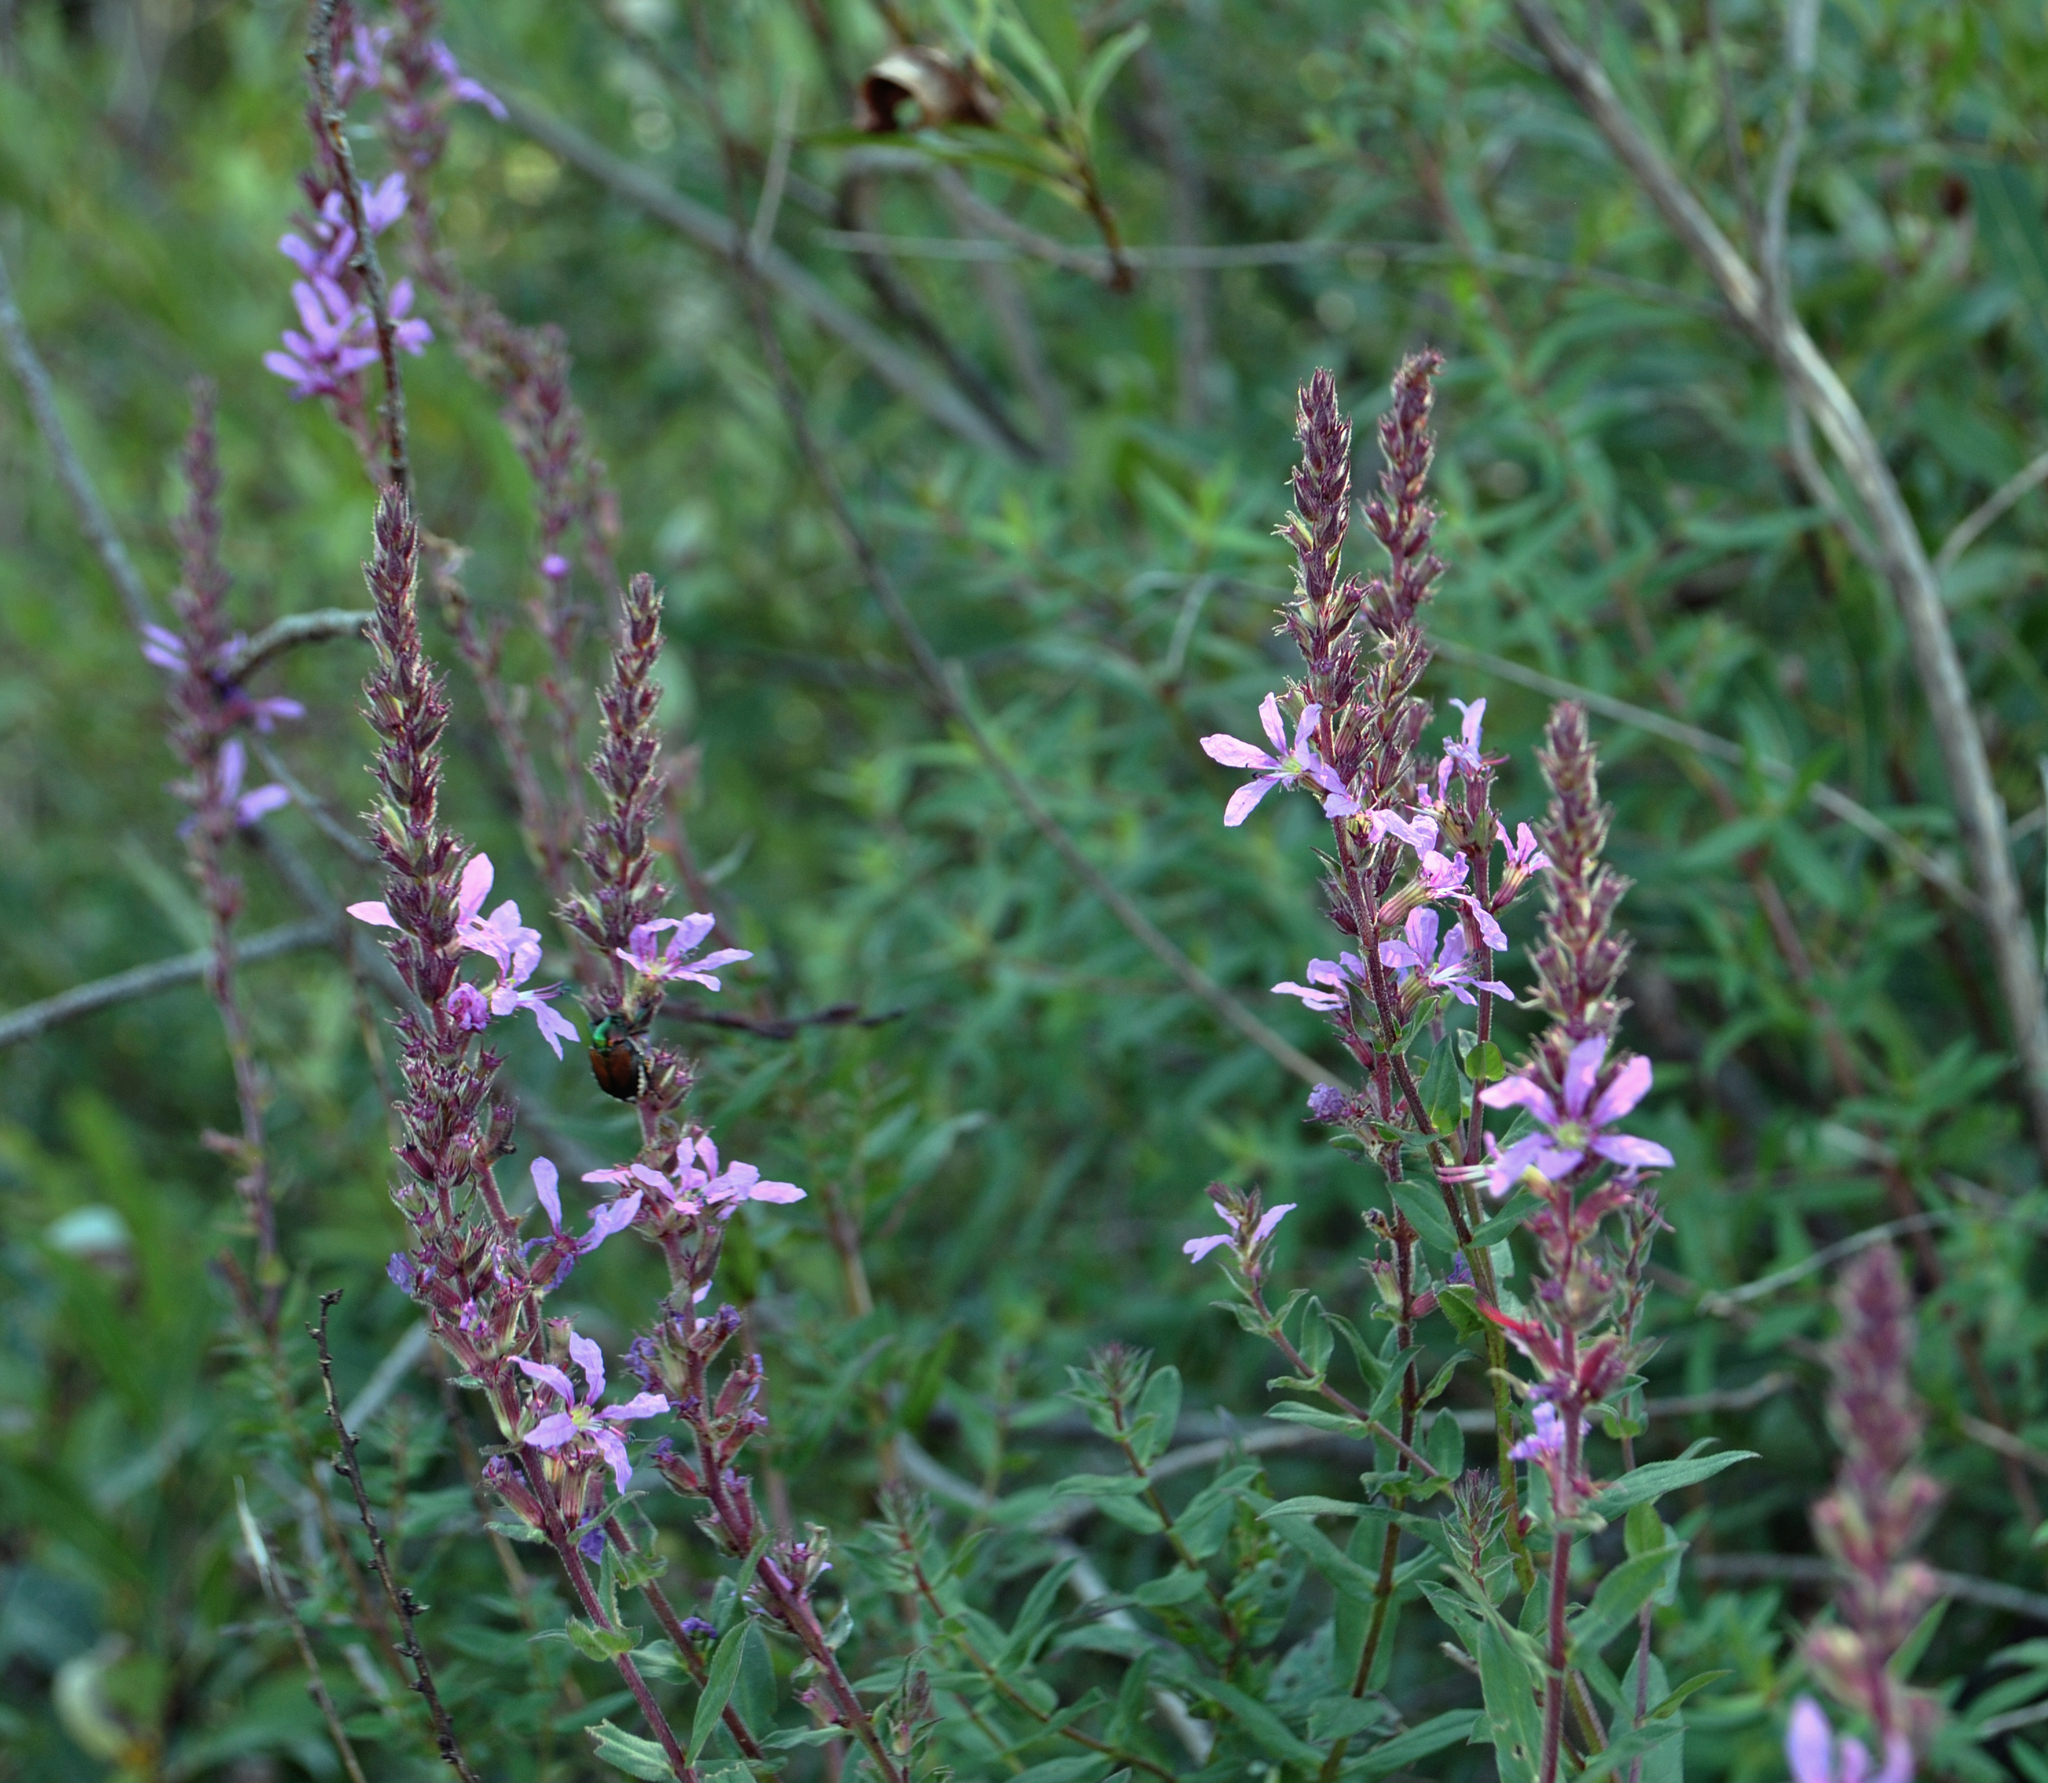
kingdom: Plantae
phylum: Tracheophyta
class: Magnoliopsida
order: Myrtales
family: Lythraceae
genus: Lythrum
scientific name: Lythrum alatum
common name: Winged loosestrife
